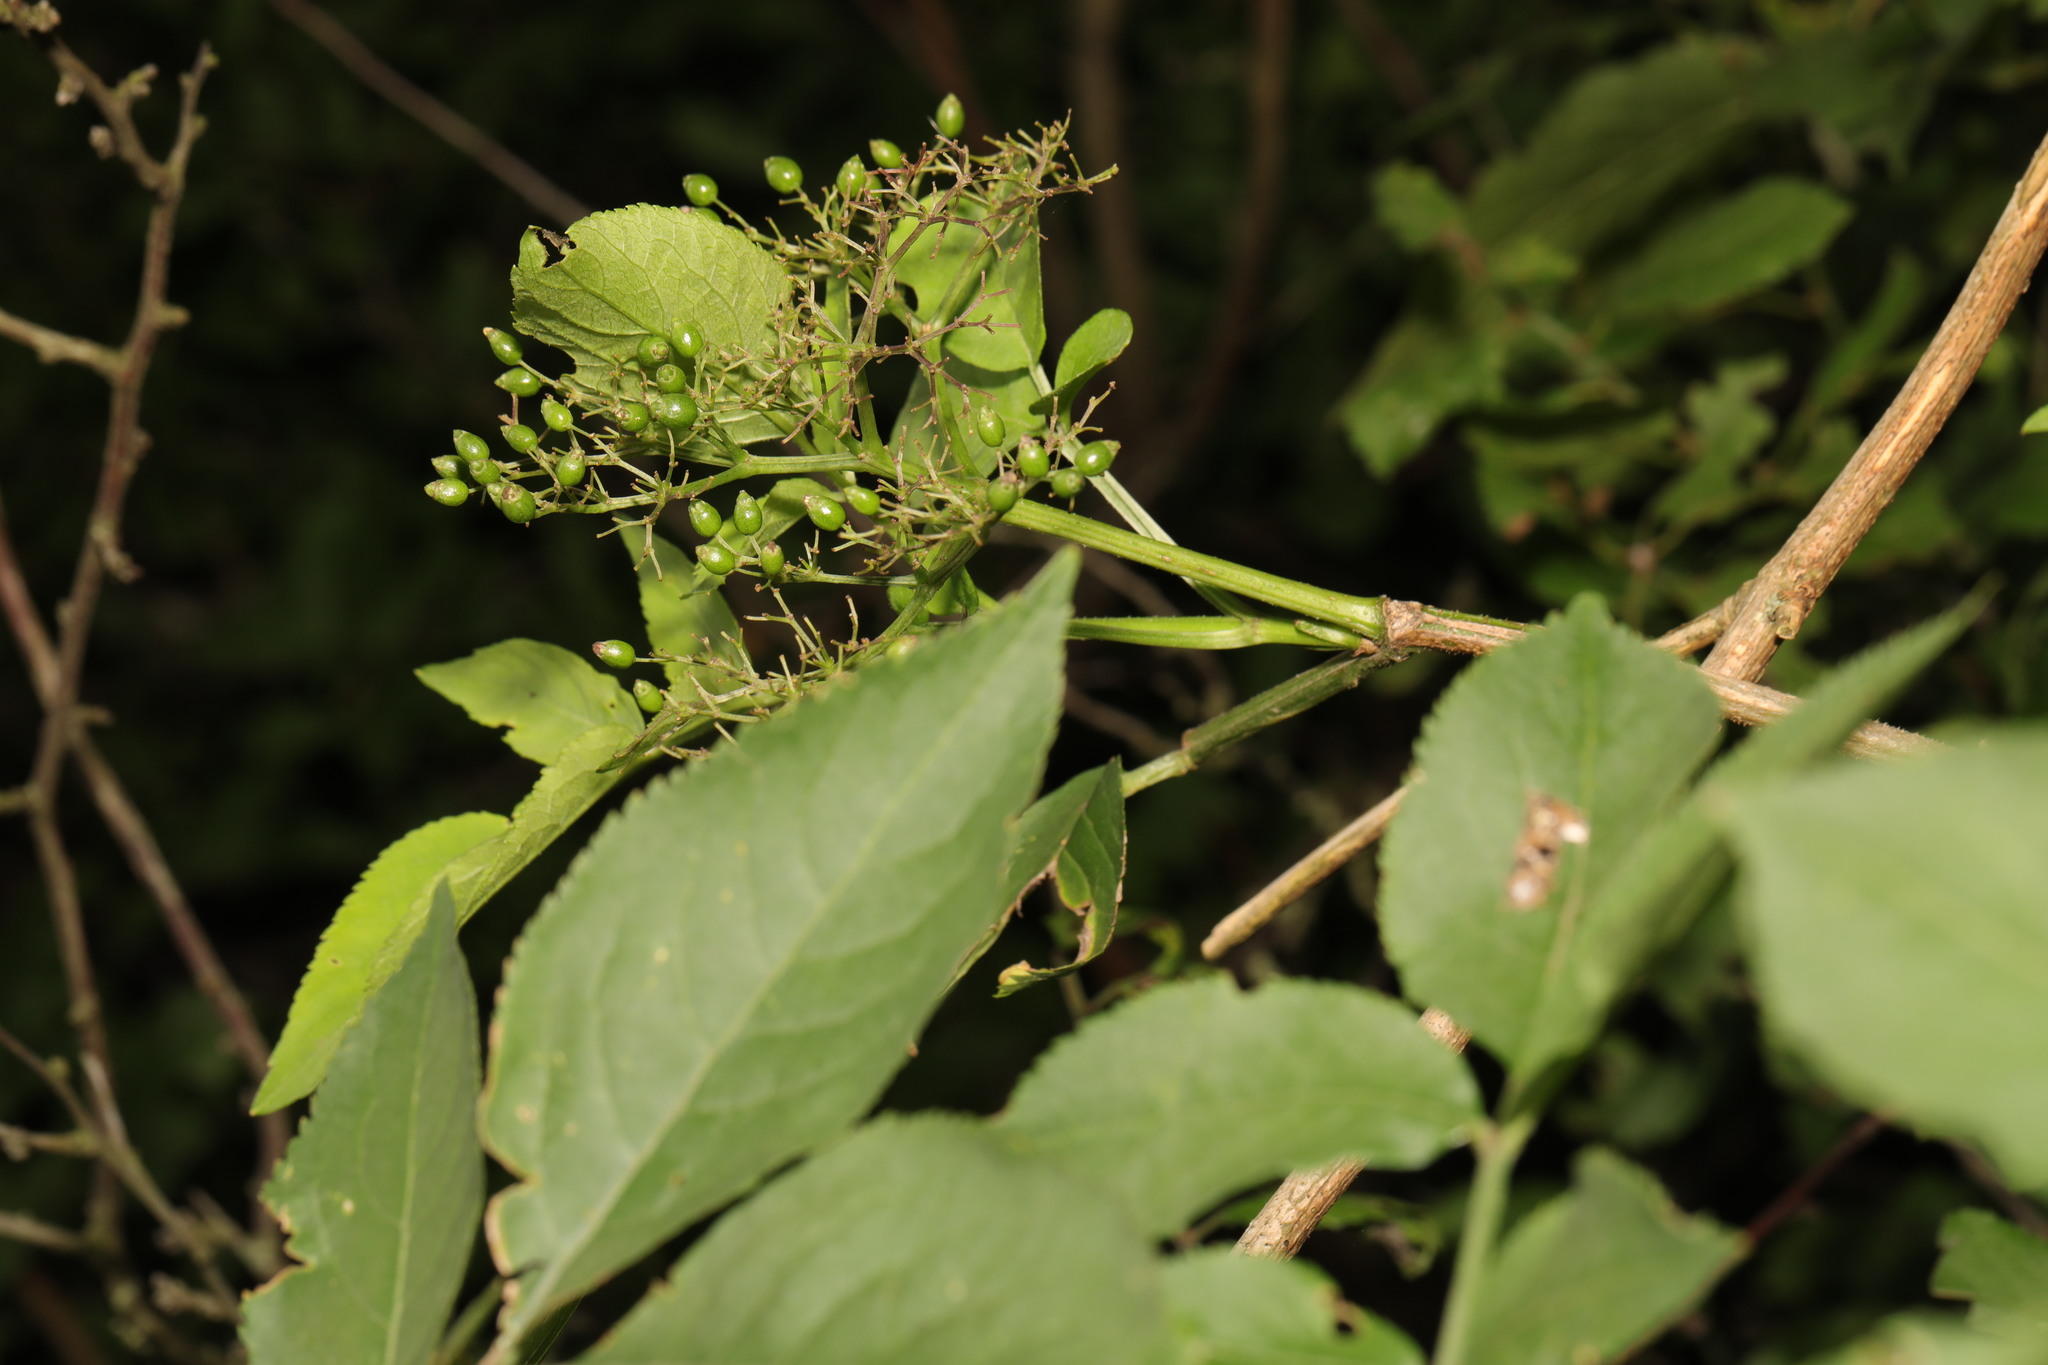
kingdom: Plantae
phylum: Tracheophyta
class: Magnoliopsida
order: Dipsacales
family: Viburnaceae
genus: Sambucus
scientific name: Sambucus nigra
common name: Elder
